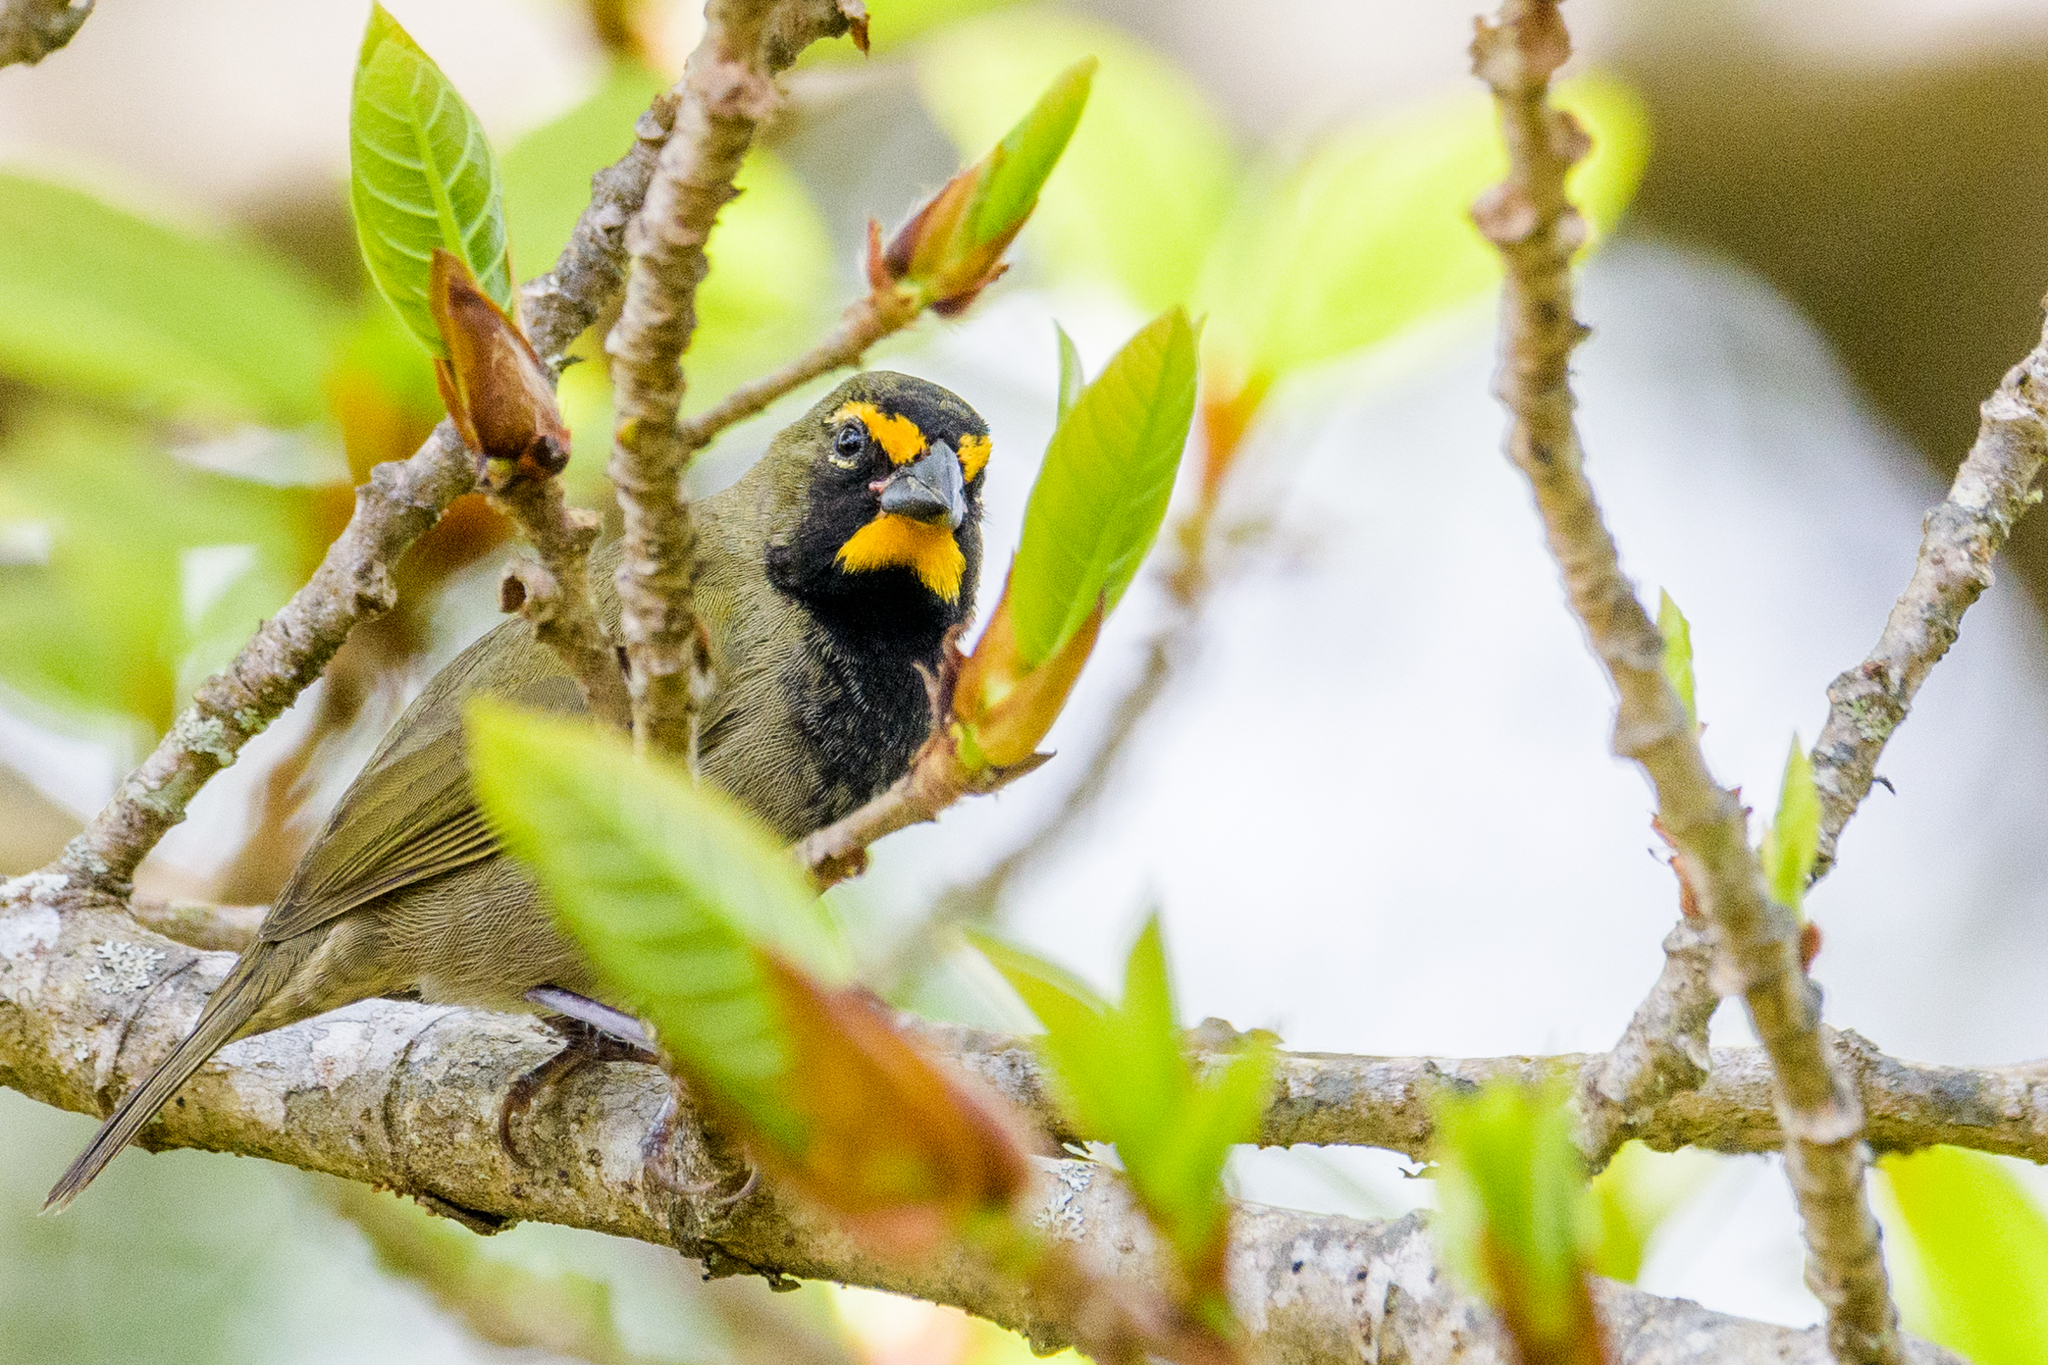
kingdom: Animalia
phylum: Chordata
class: Aves
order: Passeriformes
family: Thraupidae
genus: Tiaris
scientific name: Tiaris olivaceus
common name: Yellow-faced grassquit
